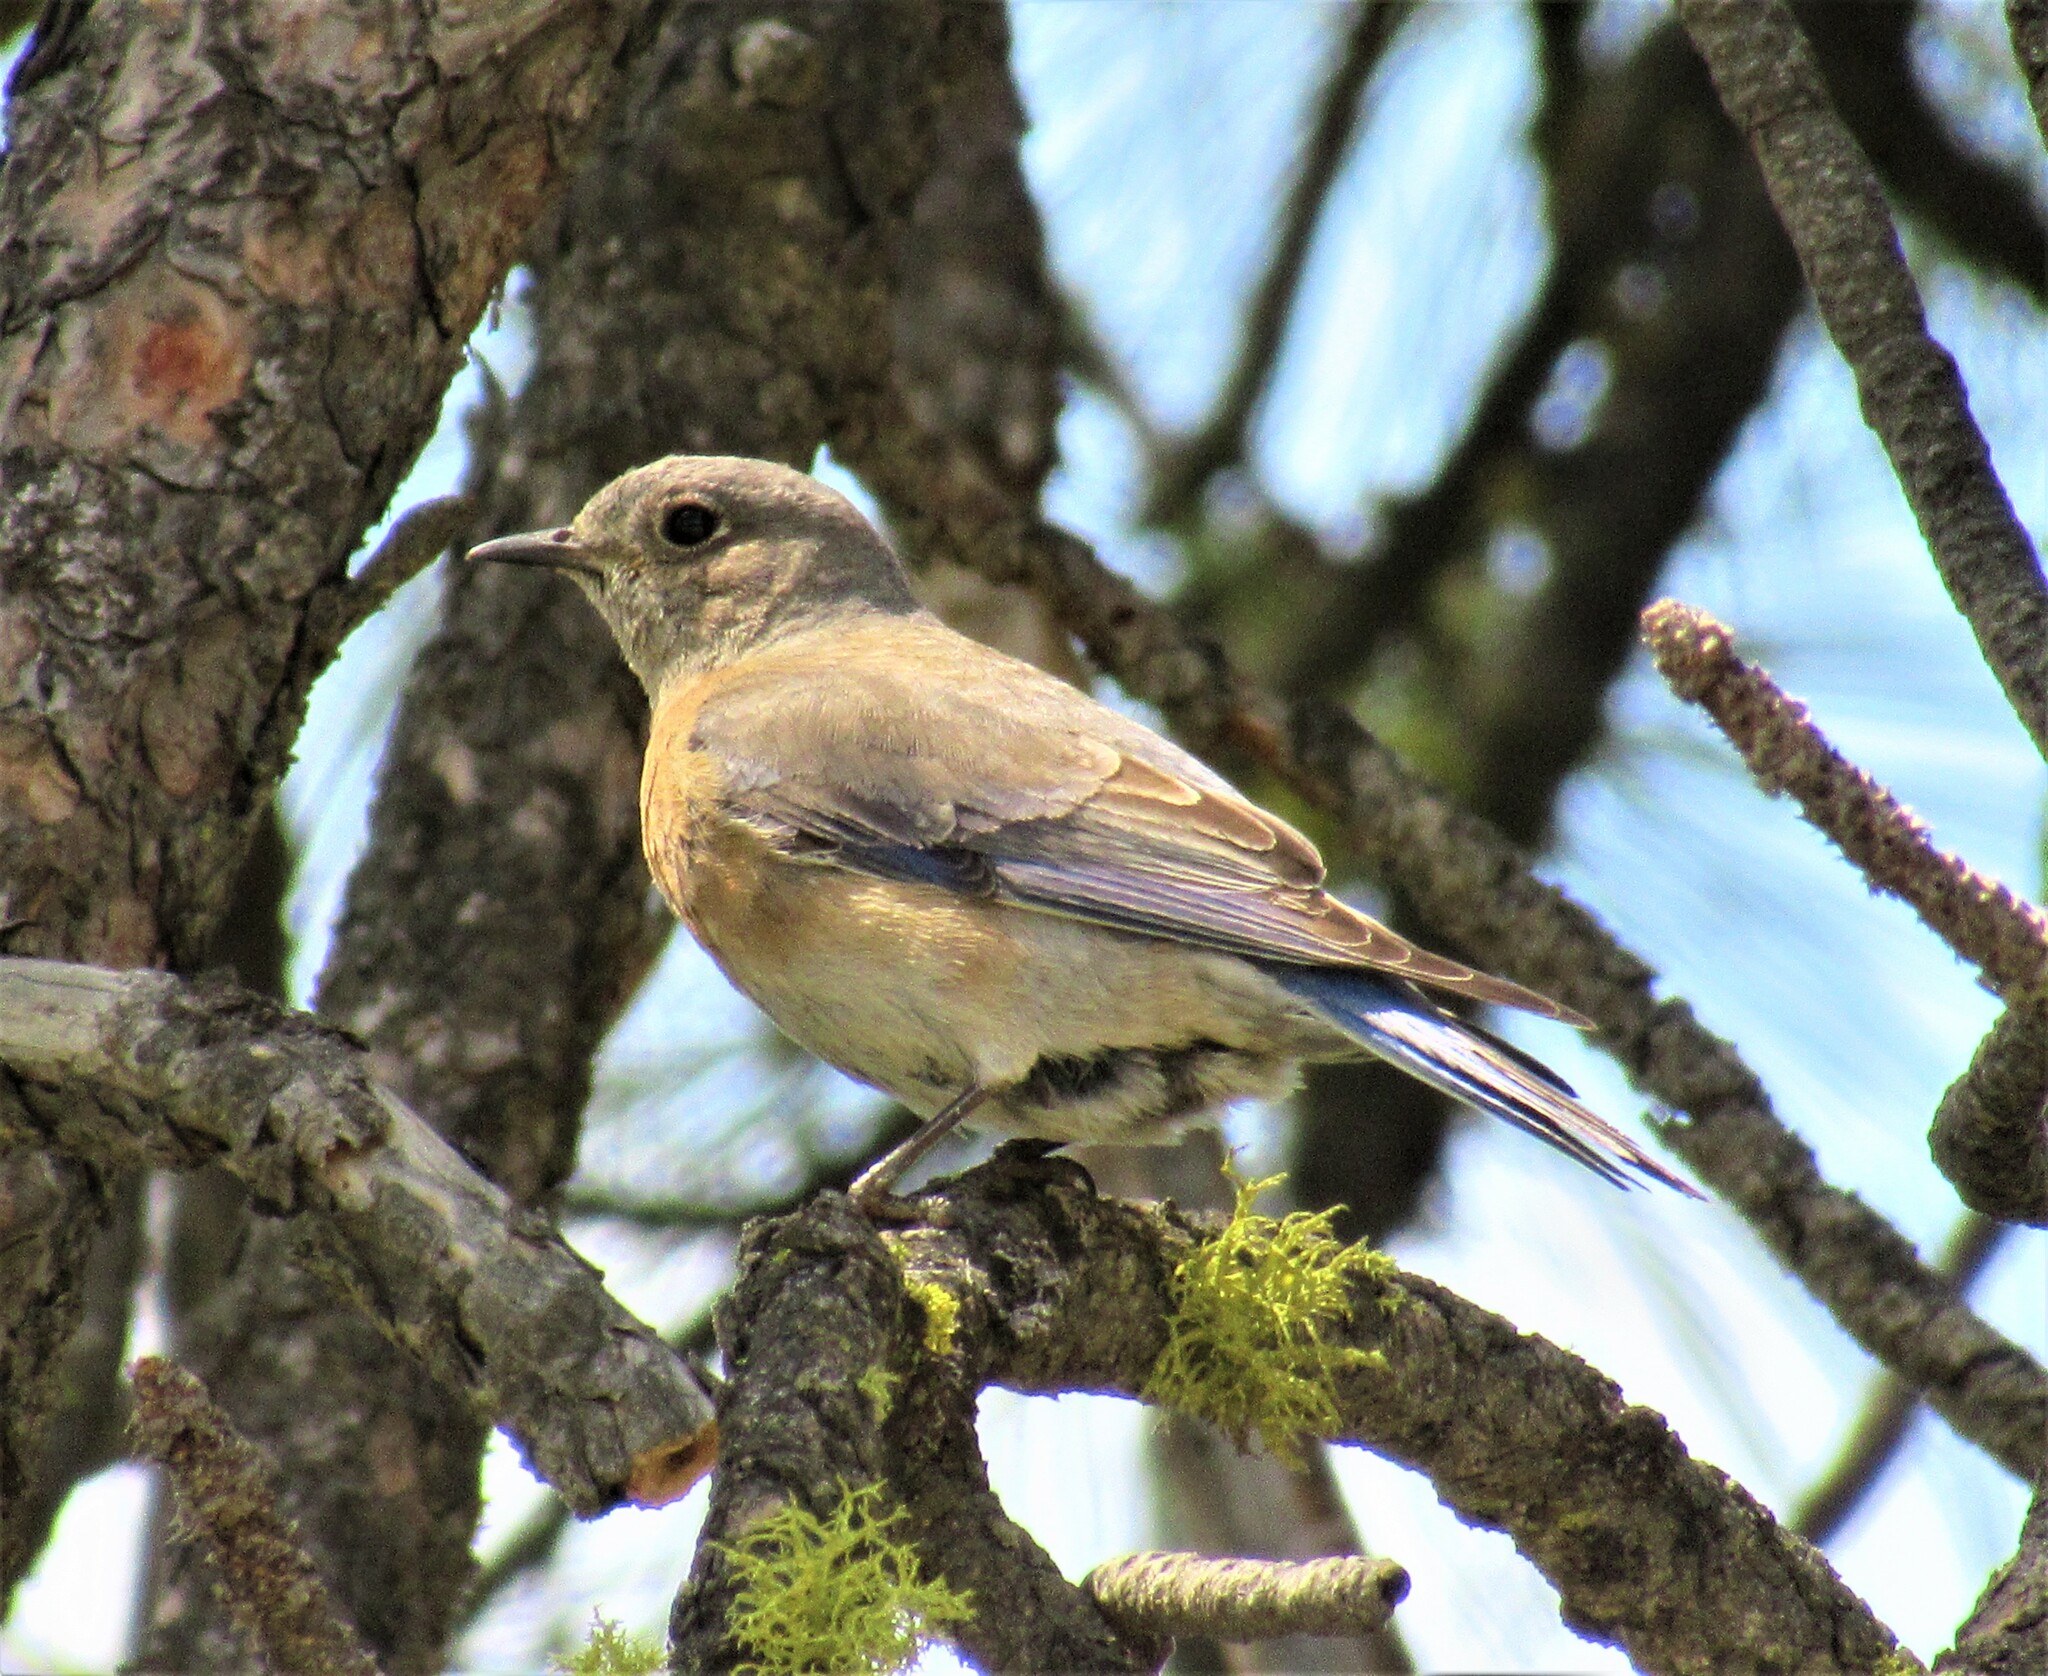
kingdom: Animalia
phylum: Chordata
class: Aves
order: Passeriformes
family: Turdidae
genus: Sialia
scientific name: Sialia mexicana
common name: Western bluebird
